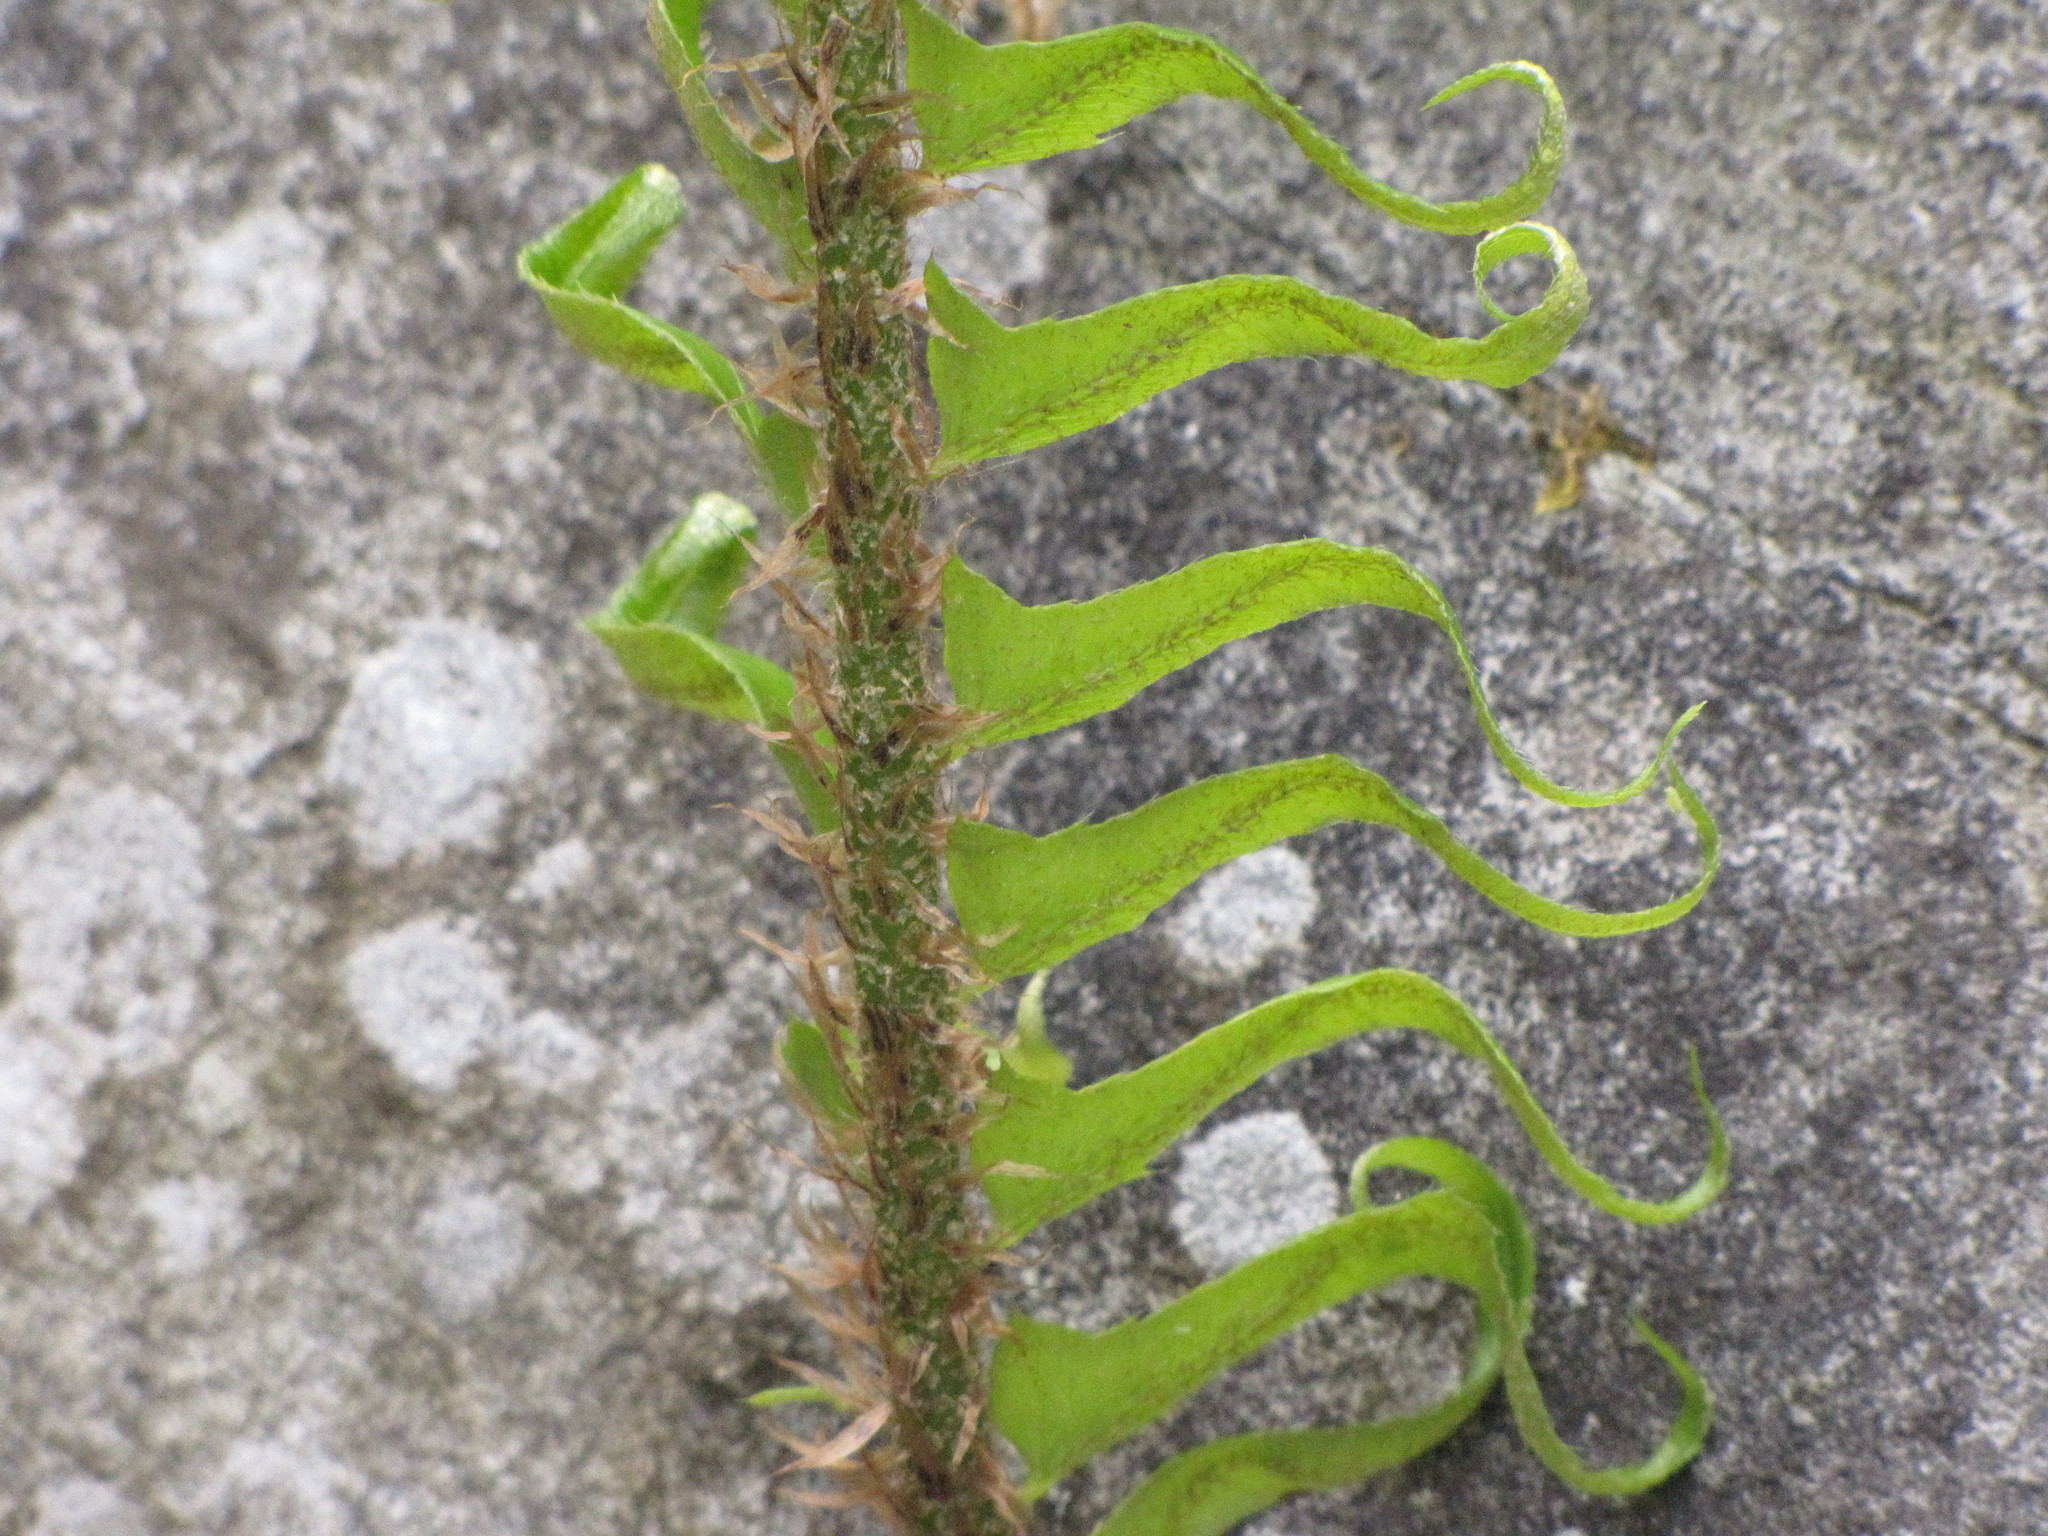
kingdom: Plantae
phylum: Tracheophyta
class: Polypodiopsida
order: Polypodiales
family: Dryopteridaceae
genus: Polystichum
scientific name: Polystichum munitum
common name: Western sword-fern
